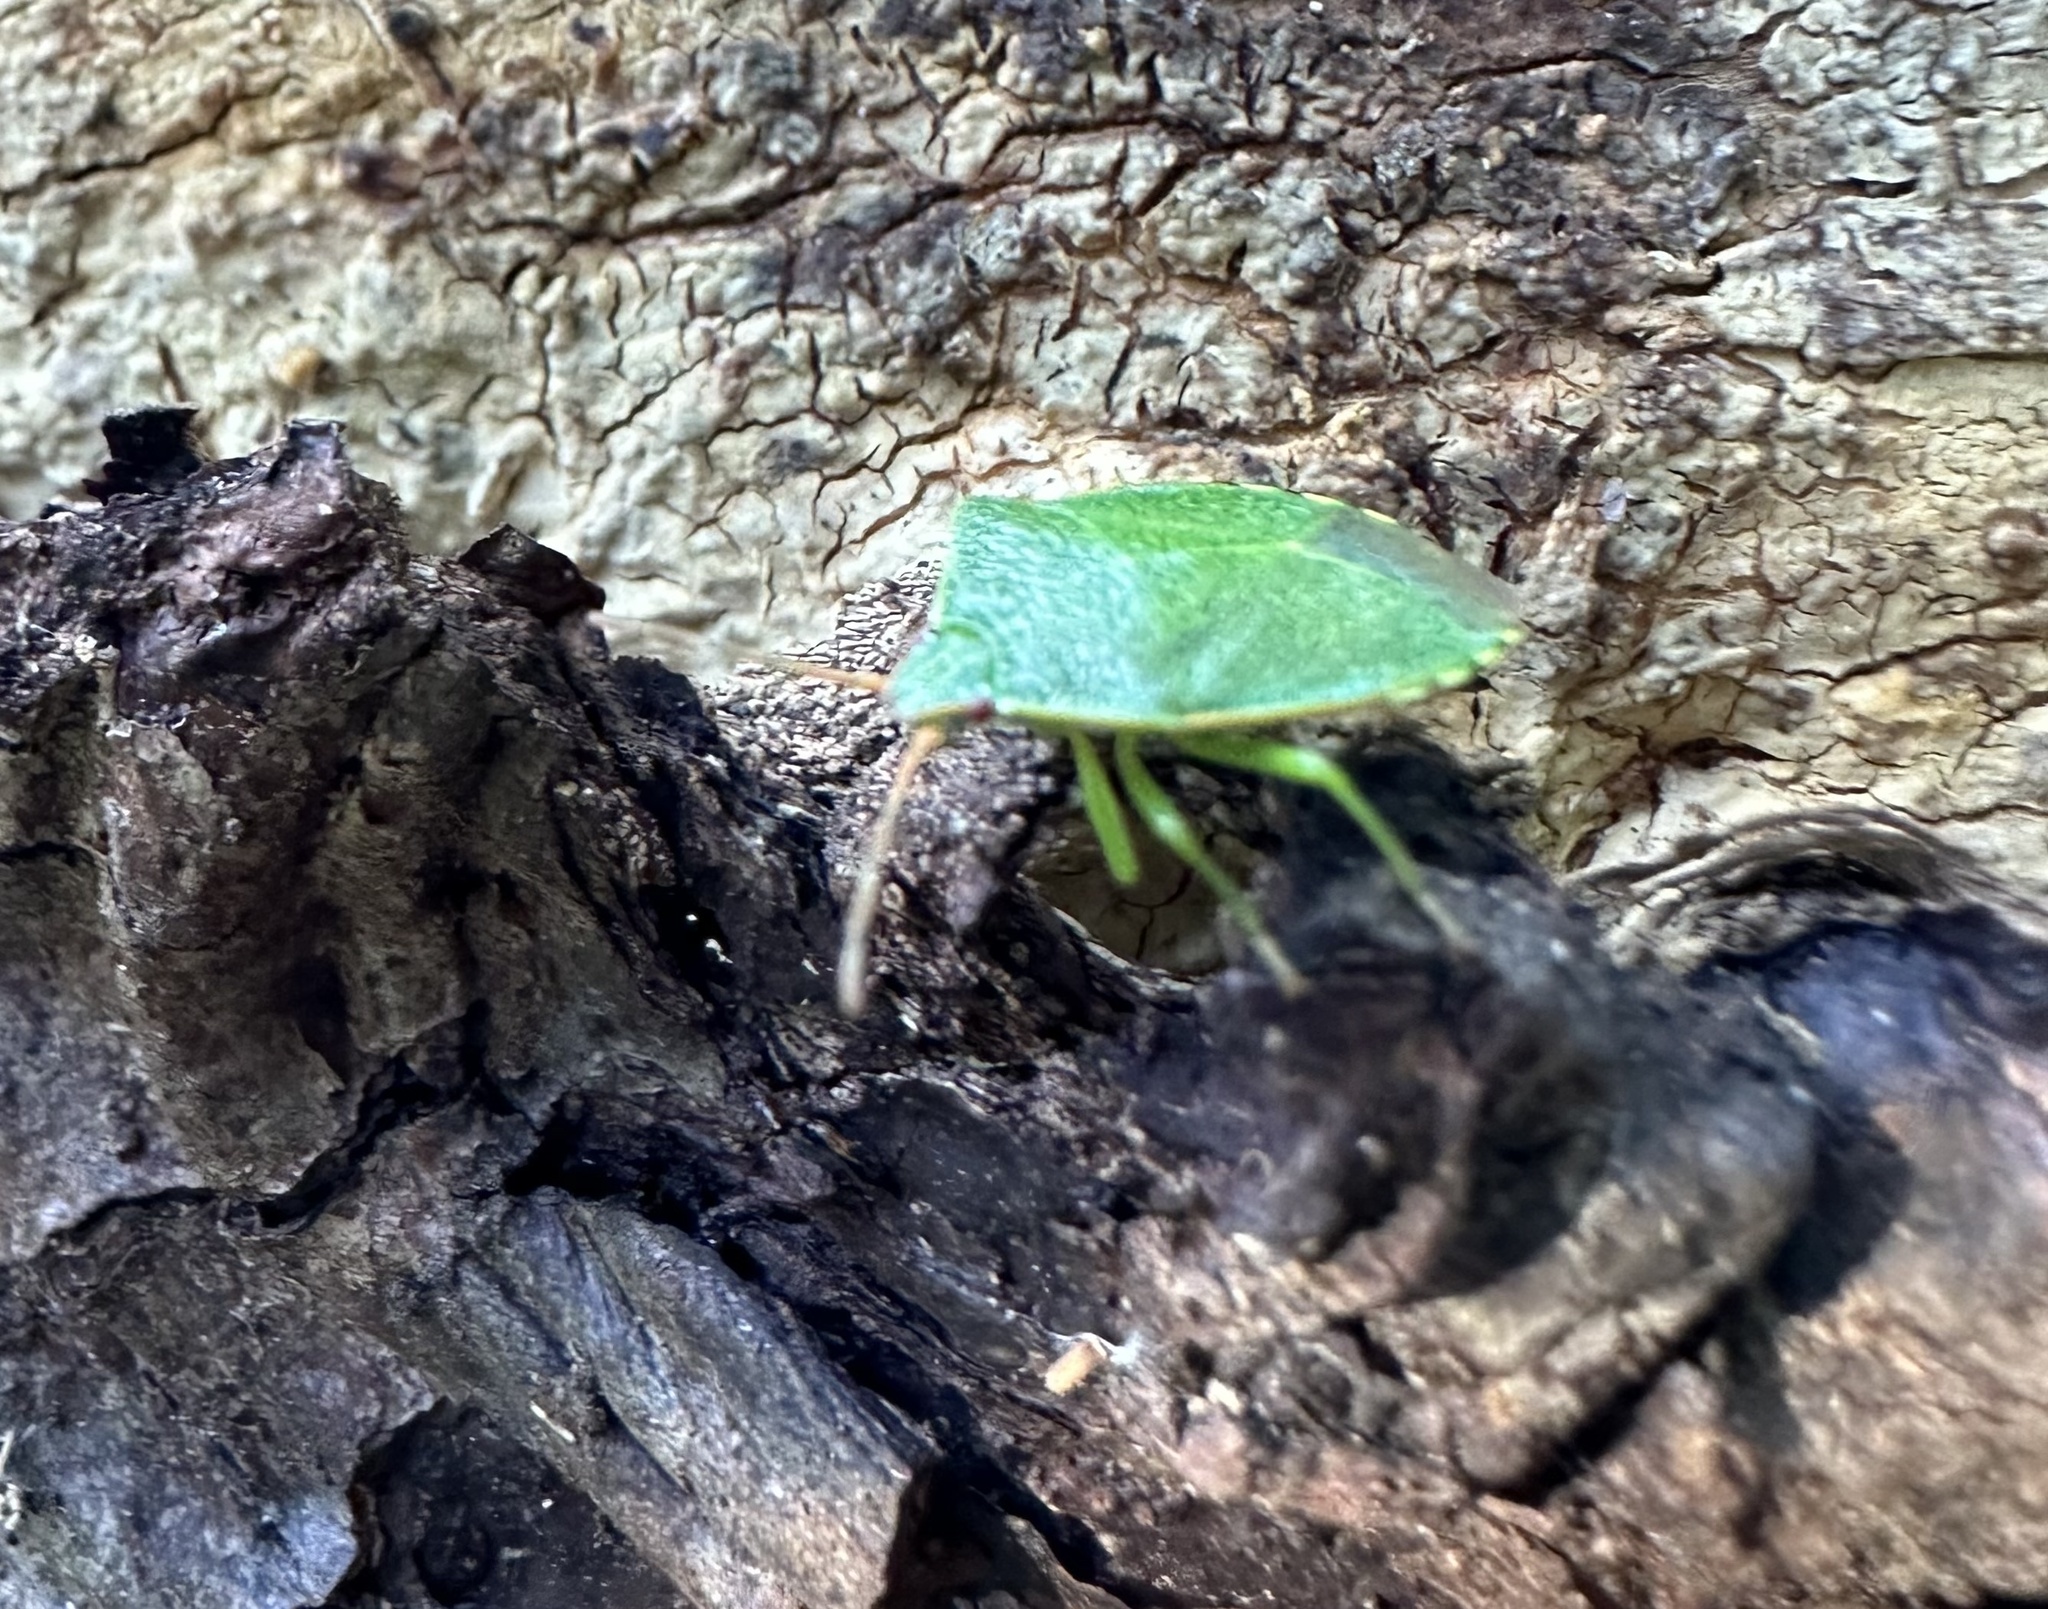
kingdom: Animalia
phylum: Arthropoda
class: Insecta
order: Hemiptera
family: Acanthosomatidae
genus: Sinopla
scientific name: Sinopla perpunctatus
